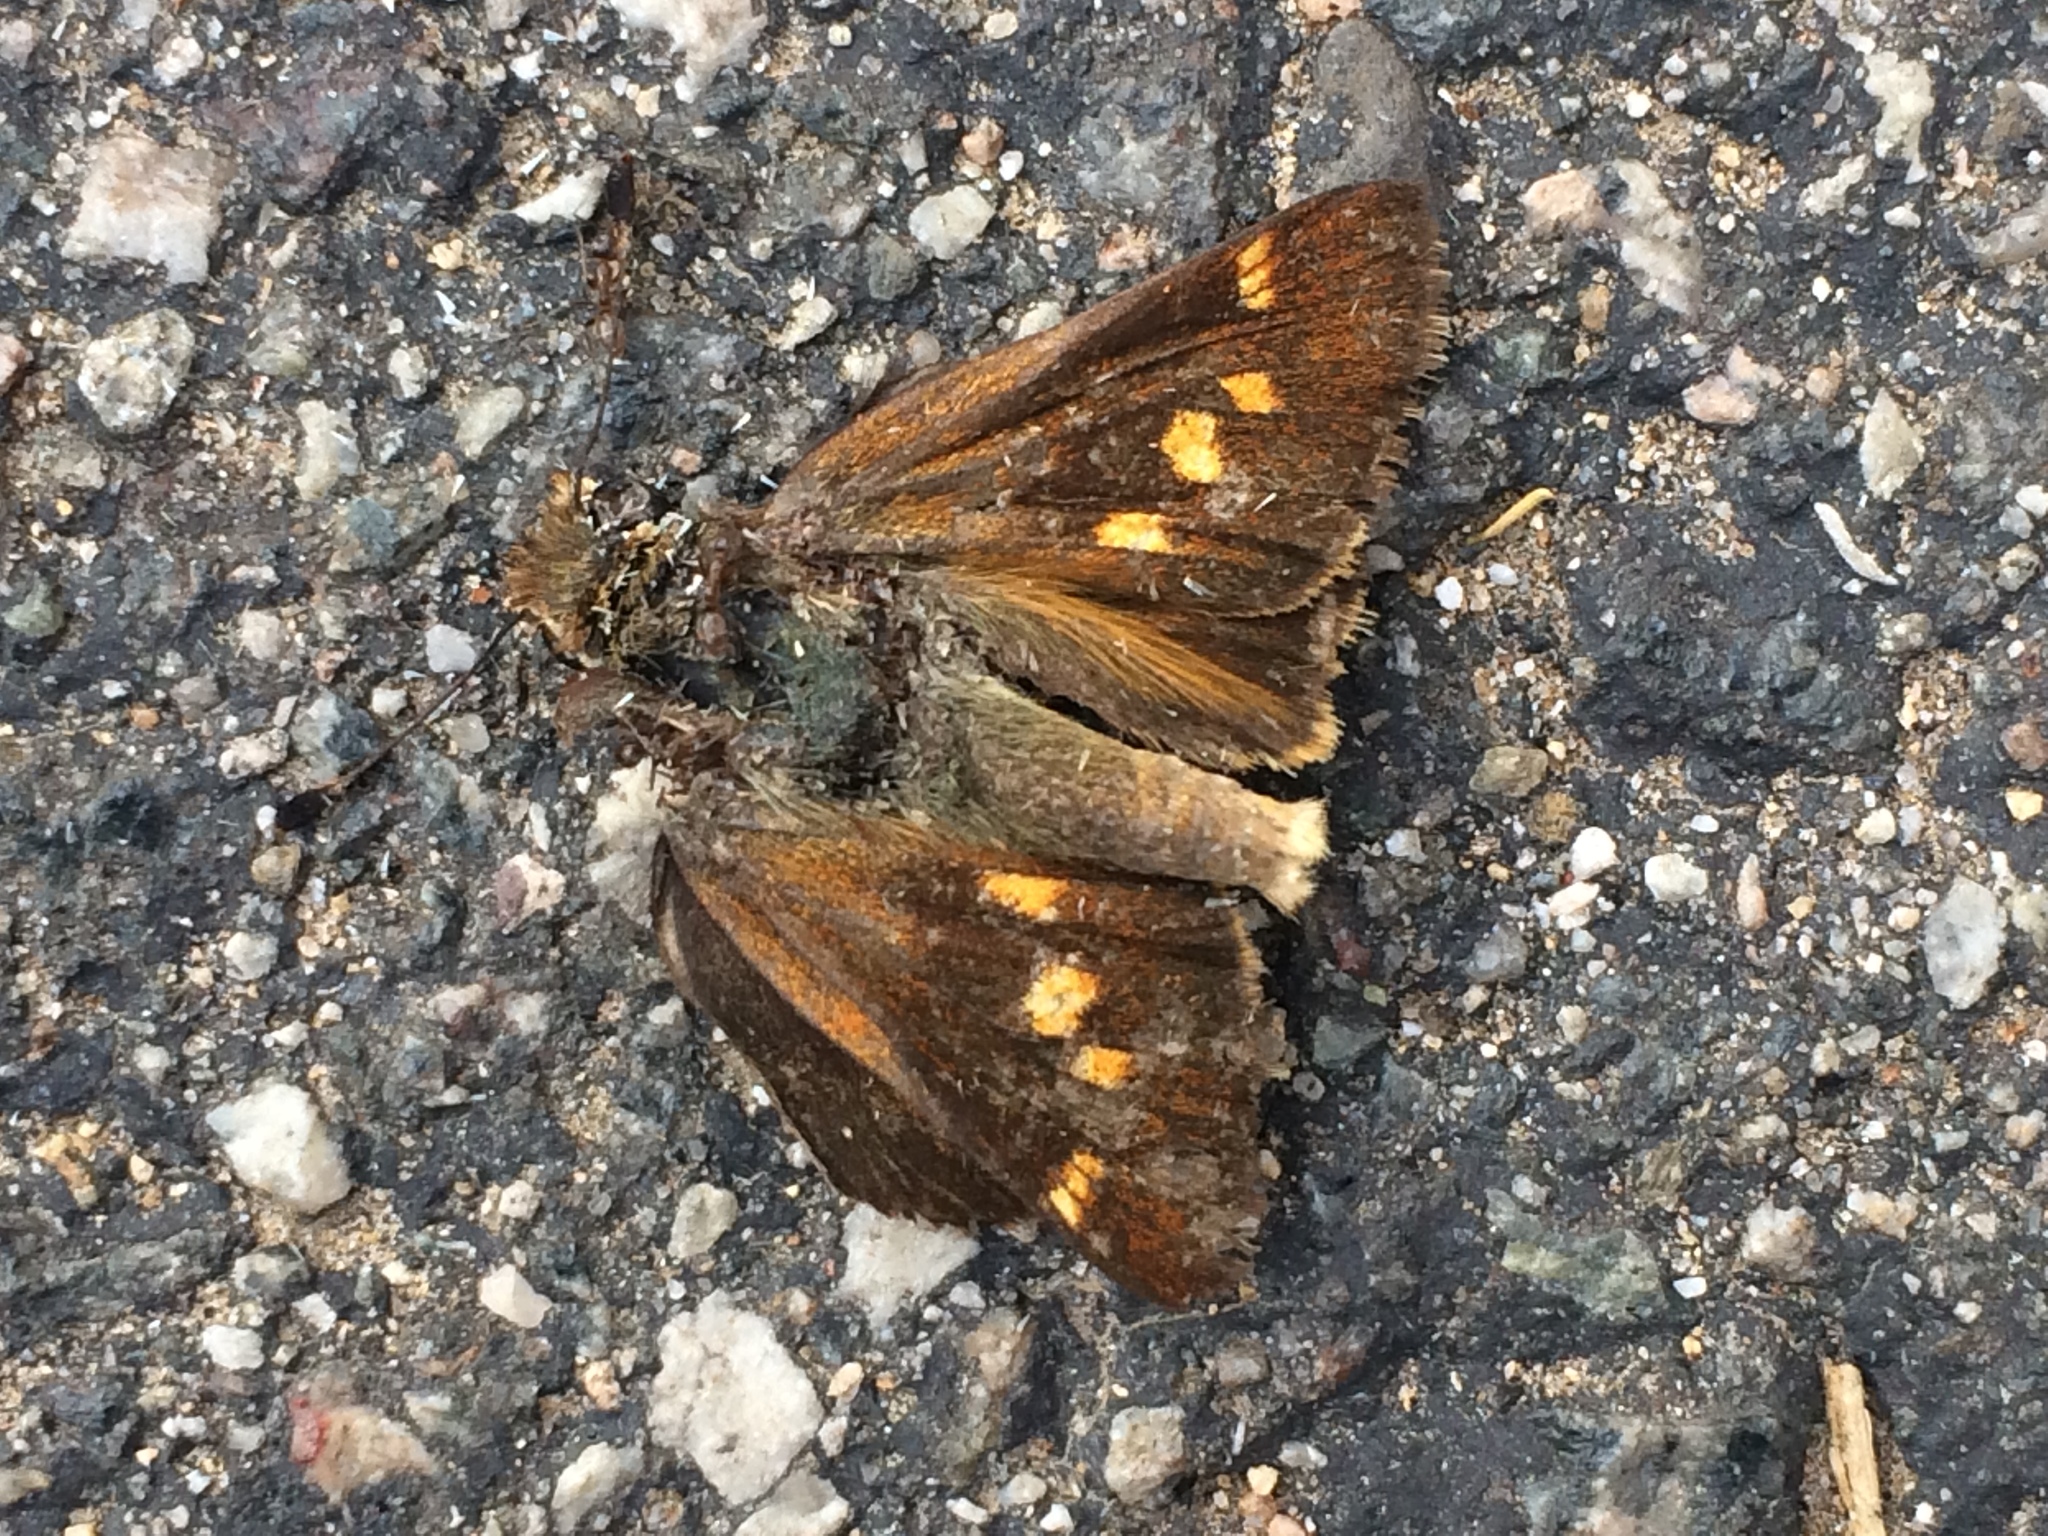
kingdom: Animalia
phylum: Arthropoda
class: Insecta
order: Lepidoptera
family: Hesperiidae
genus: Lon
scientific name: Lon melane
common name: Umber skipper
